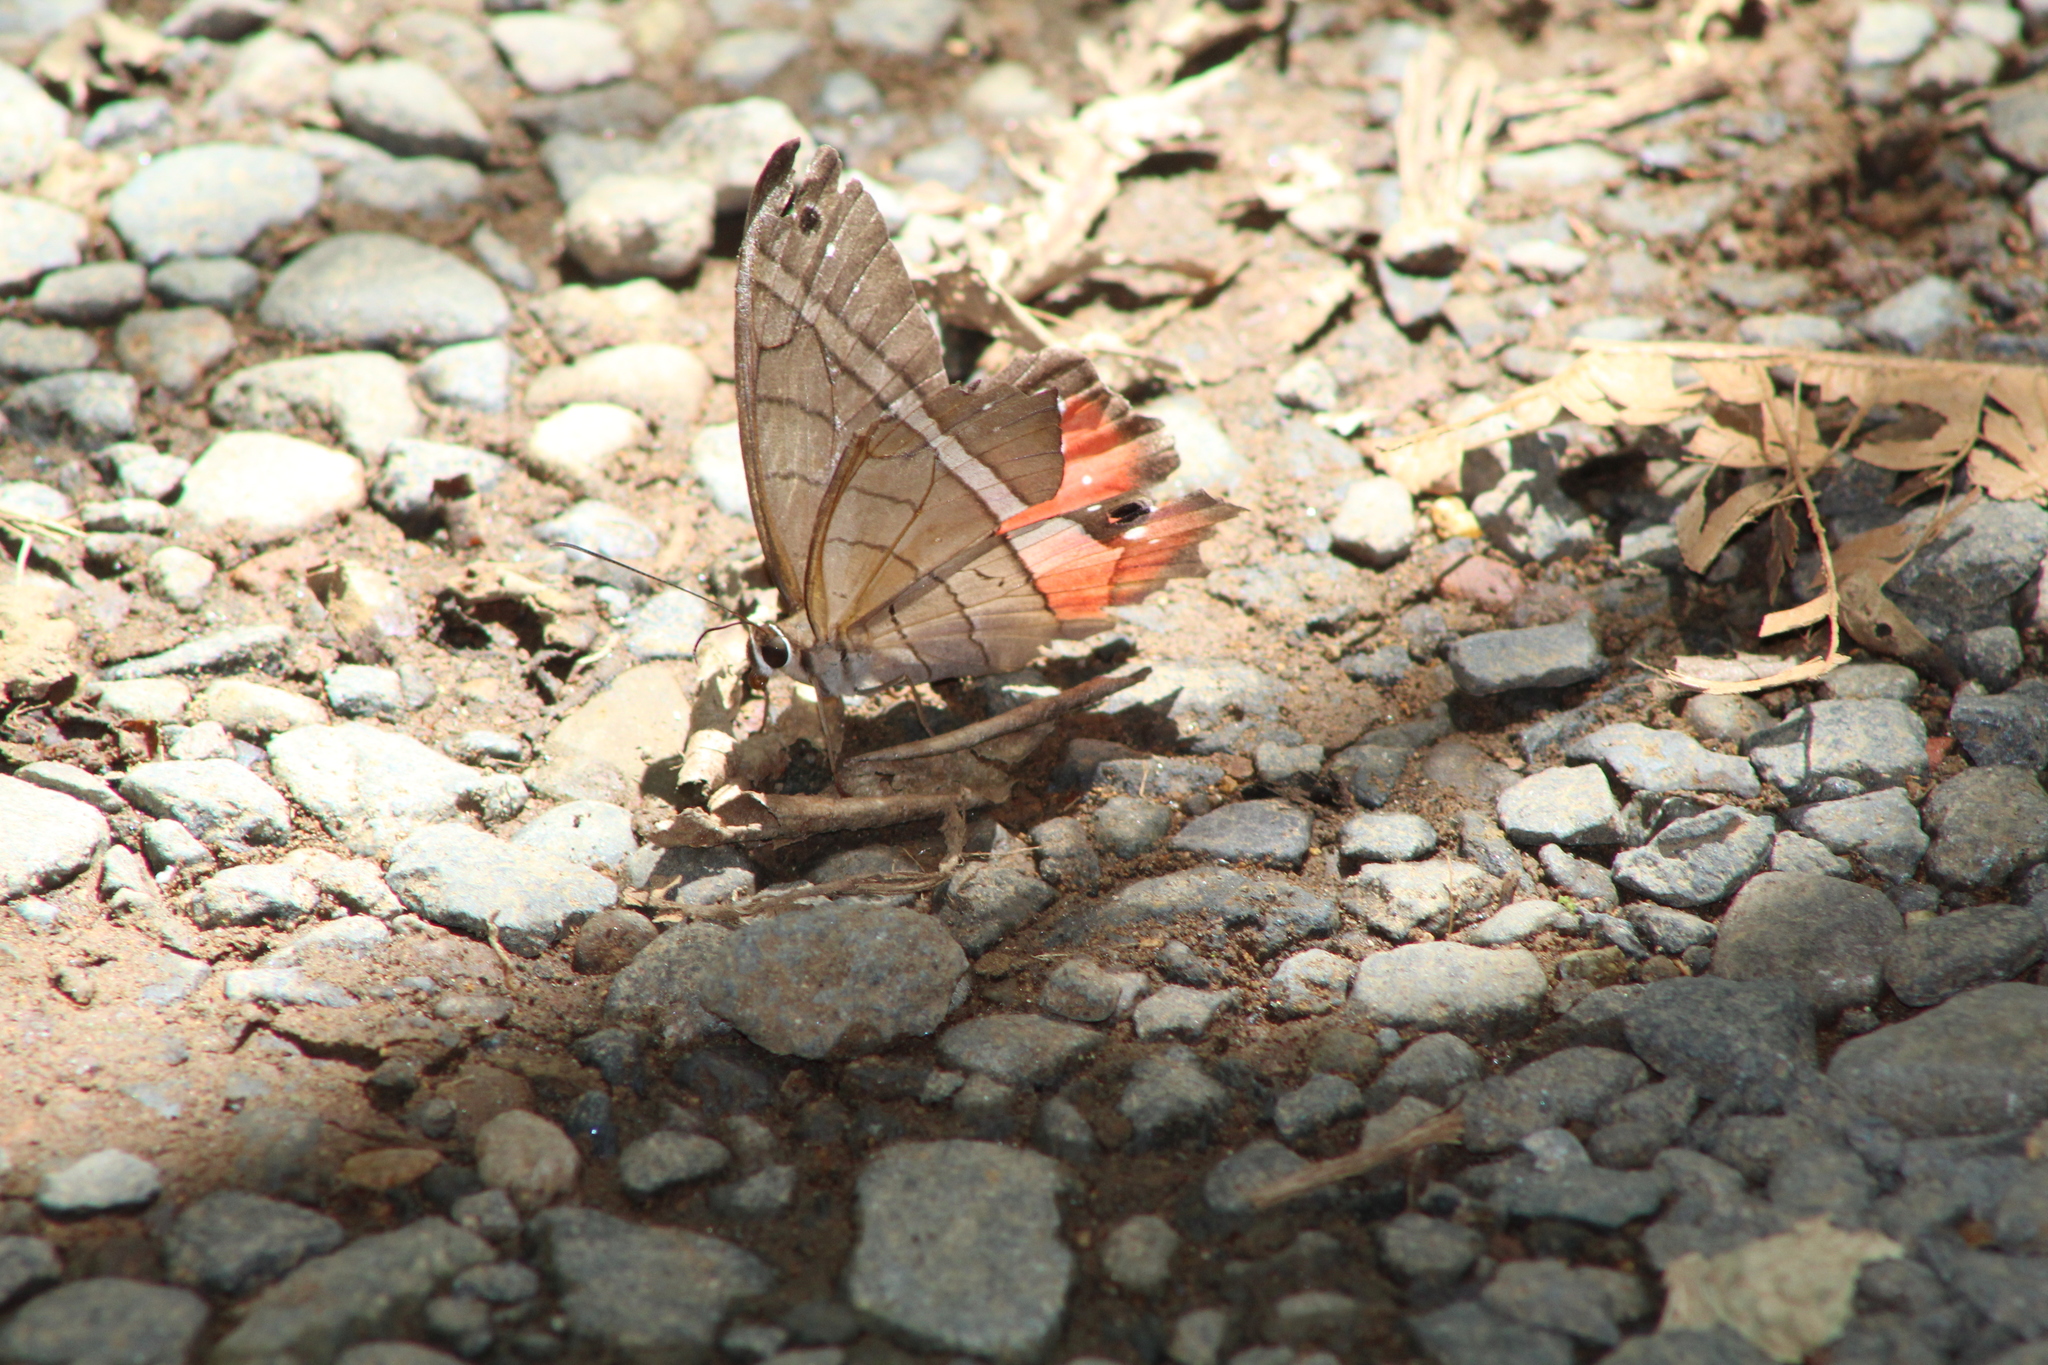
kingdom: Animalia
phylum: Arthropoda
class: Insecta
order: Lepidoptera
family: Nymphalidae
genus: Pierella
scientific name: Pierella helvina
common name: Red-washed satyr
